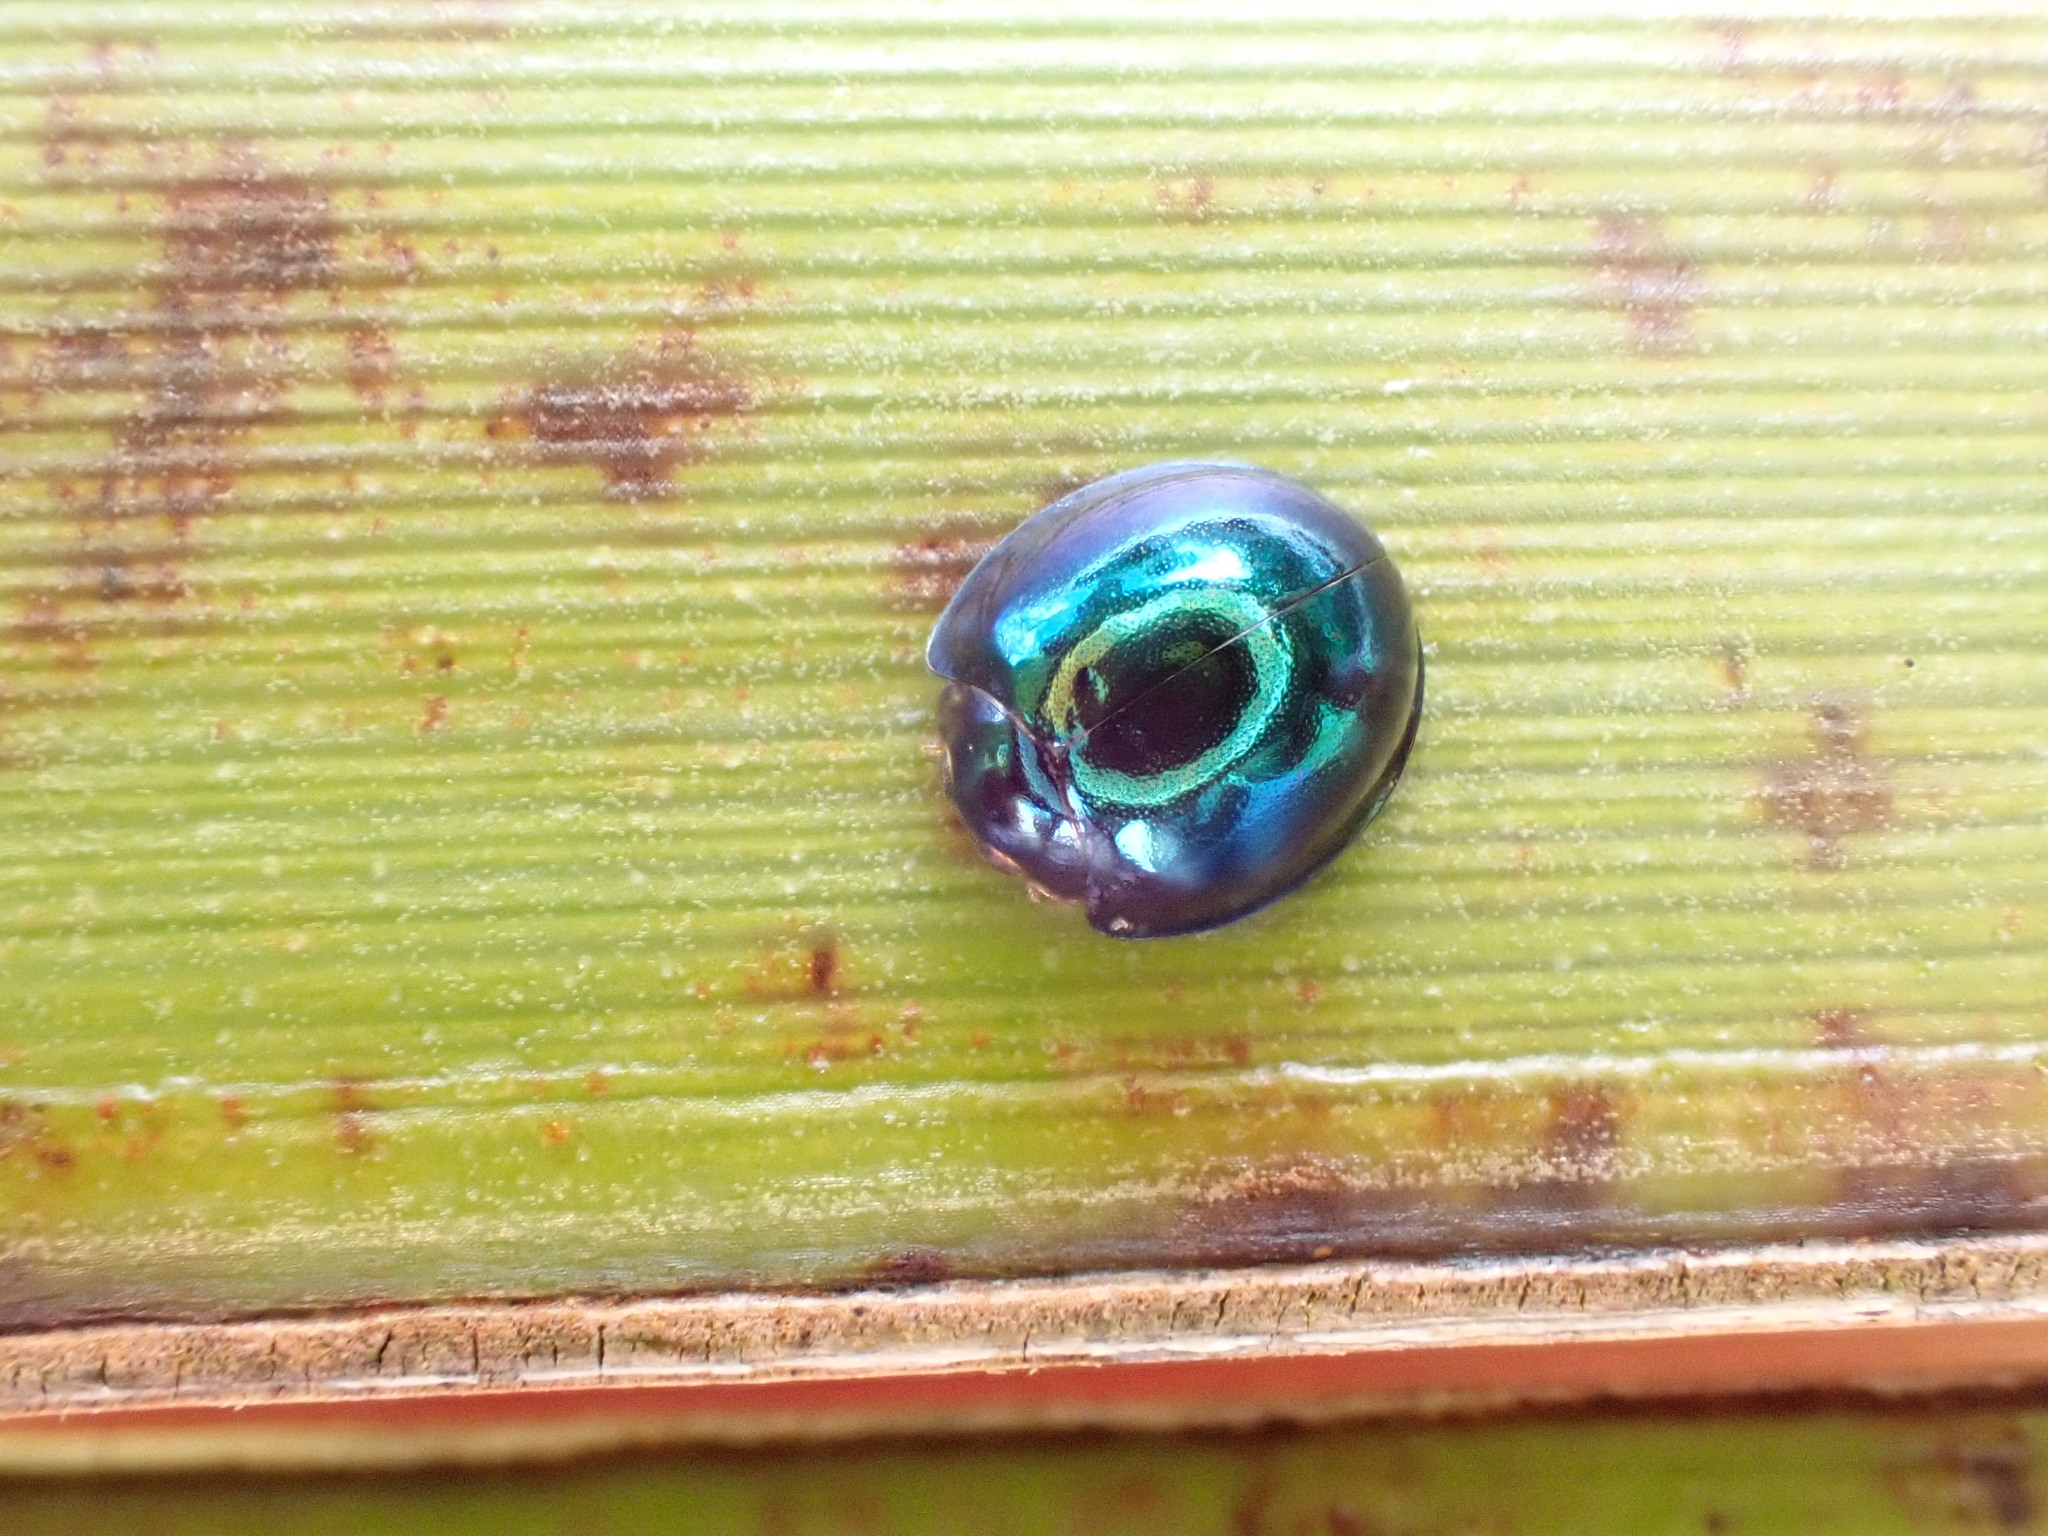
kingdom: Animalia
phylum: Arthropoda
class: Insecta
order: Coleoptera
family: Coccinellidae
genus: Halmus
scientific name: Halmus chalybeus
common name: Steel blue ladybird beetle
